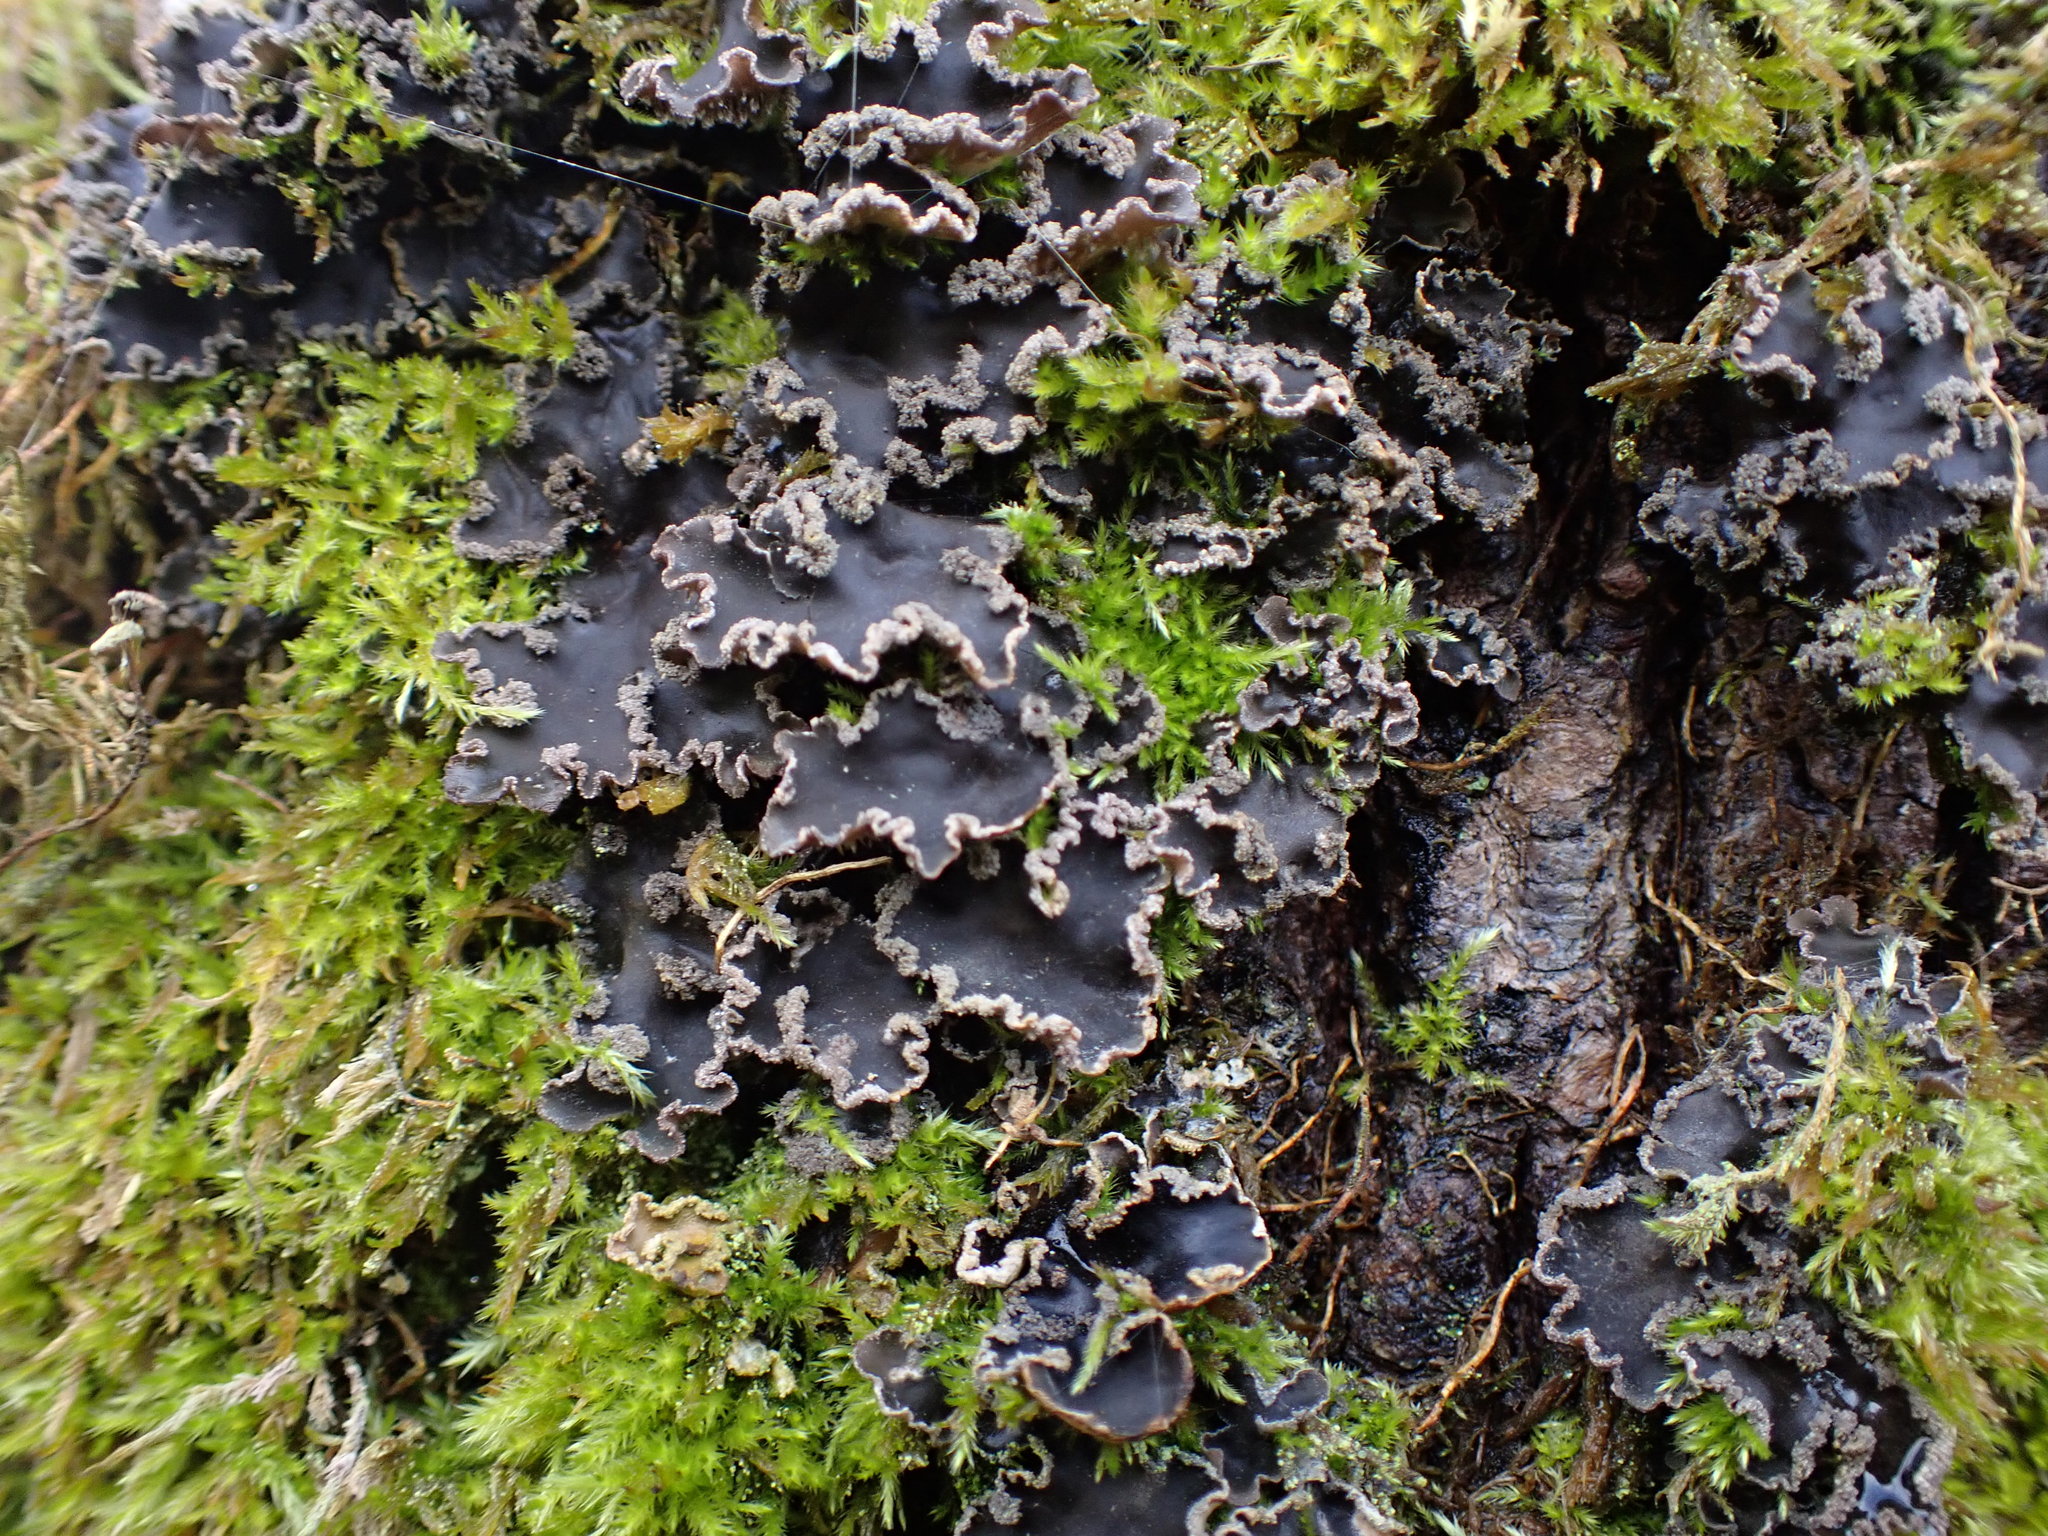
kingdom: Fungi
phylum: Ascomycota
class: Lecanoromycetes
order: Peltigerales
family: Peltigeraceae
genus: Peltigera
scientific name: Peltigera collina
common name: Gritty tree pelt lichen
